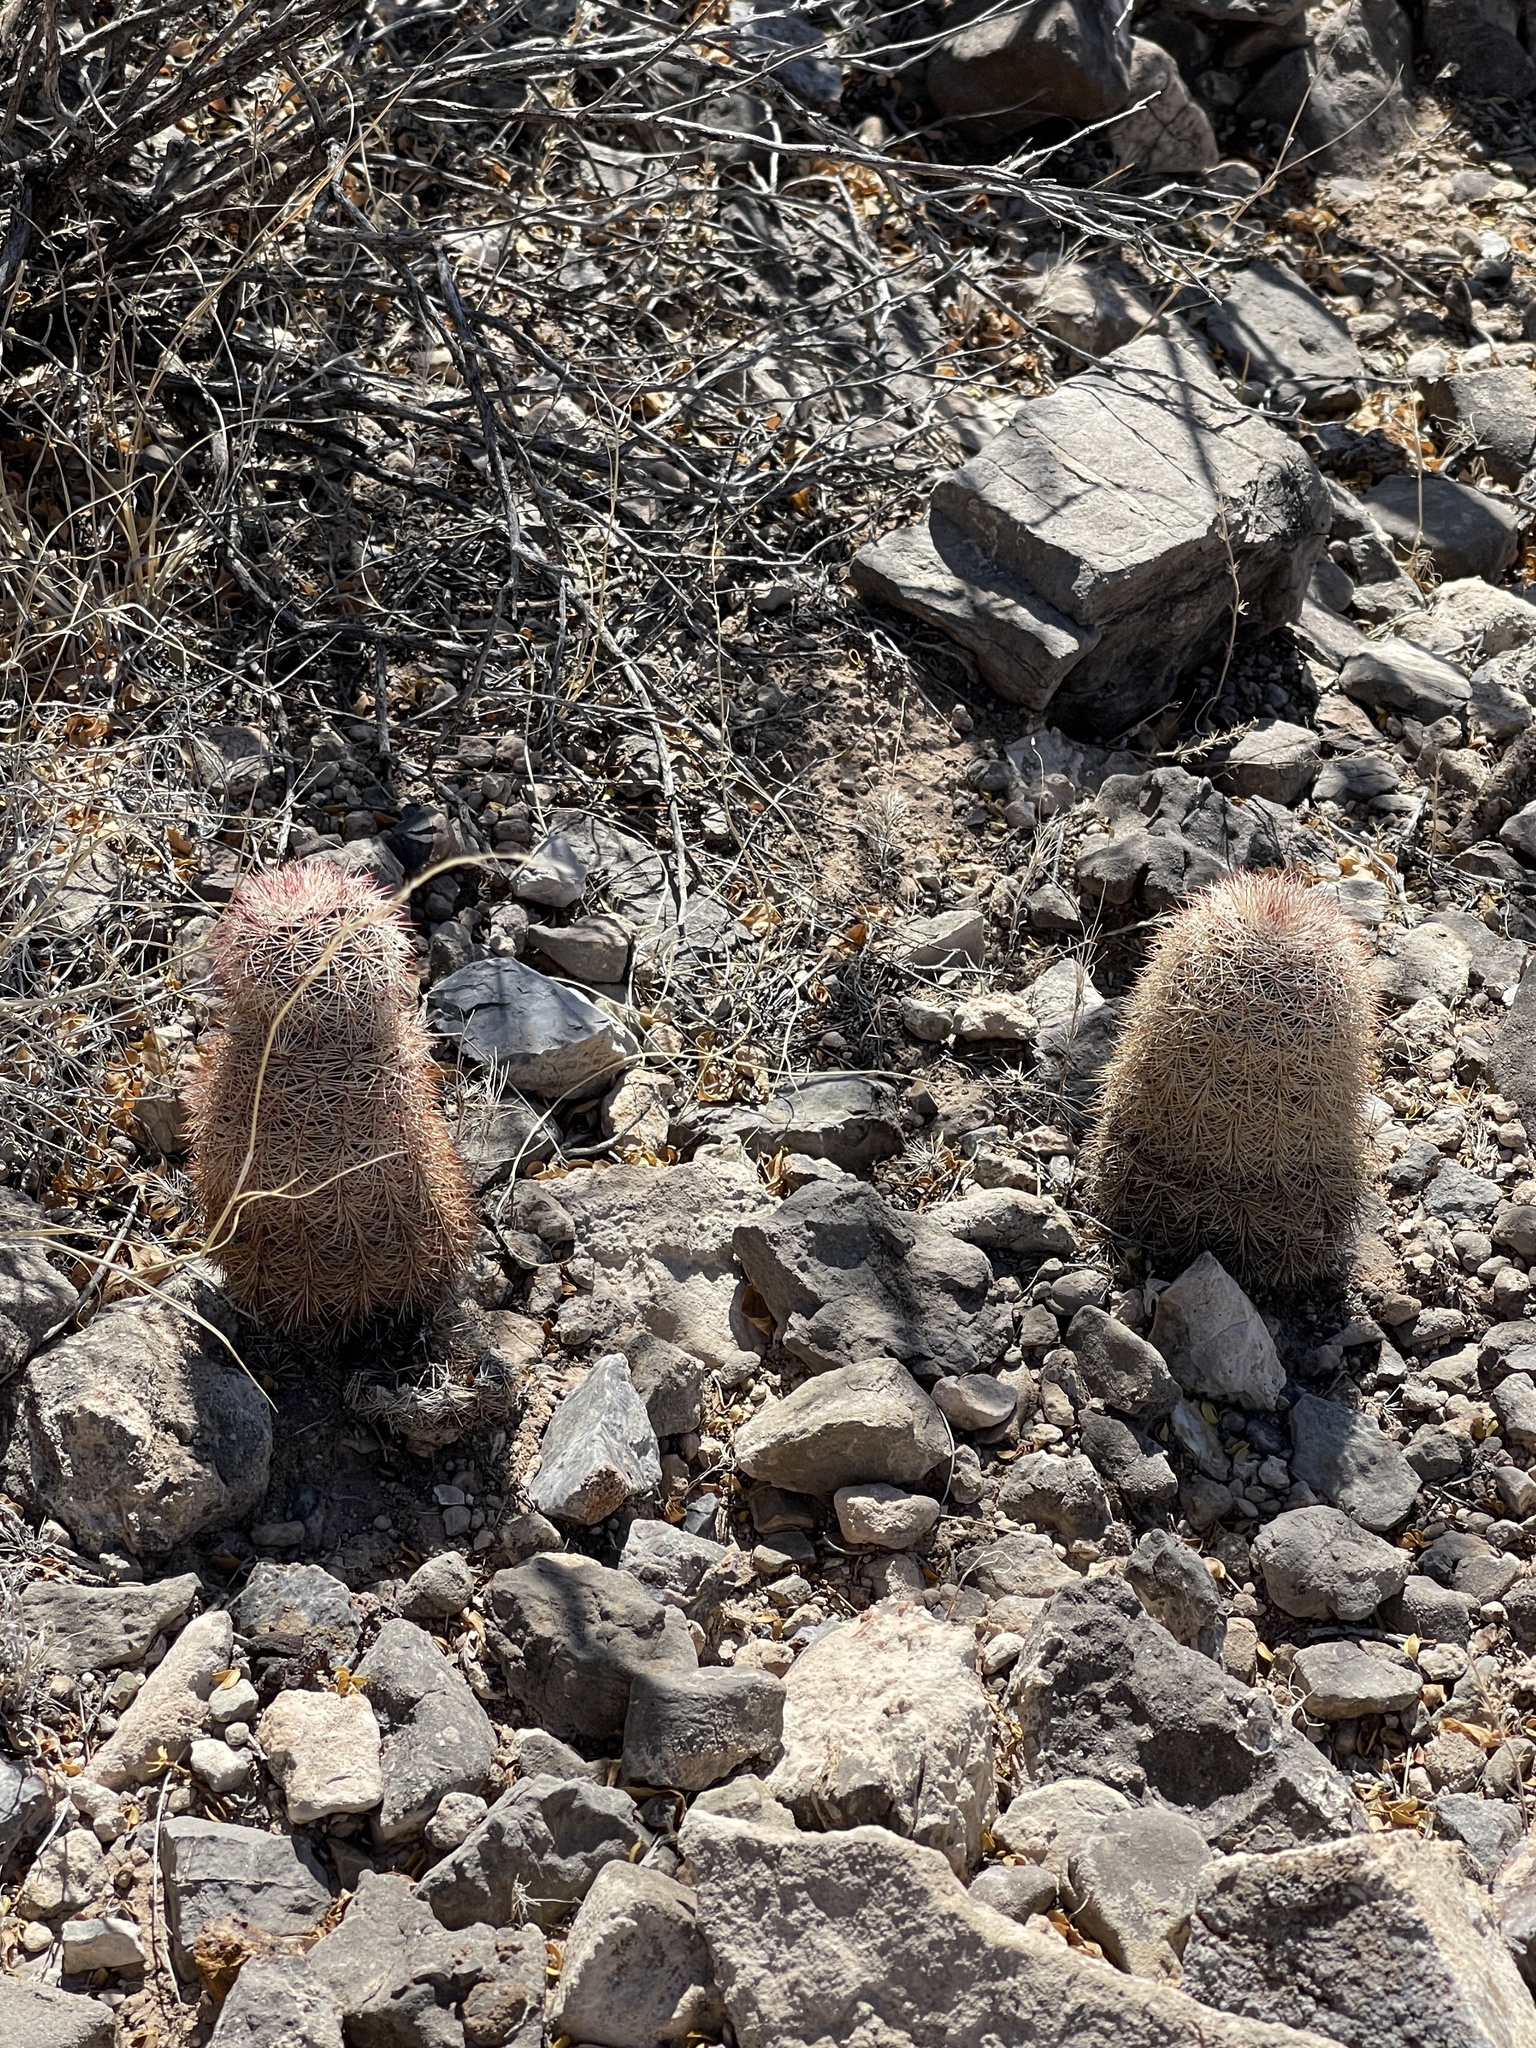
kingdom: Plantae
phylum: Tracheophyta
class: Magnoliopsida
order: Caryophyllales
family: Cactaceae
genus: Echinocereus
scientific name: Echinocereus dasyacanthus
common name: Spiny hedgehog cactus
